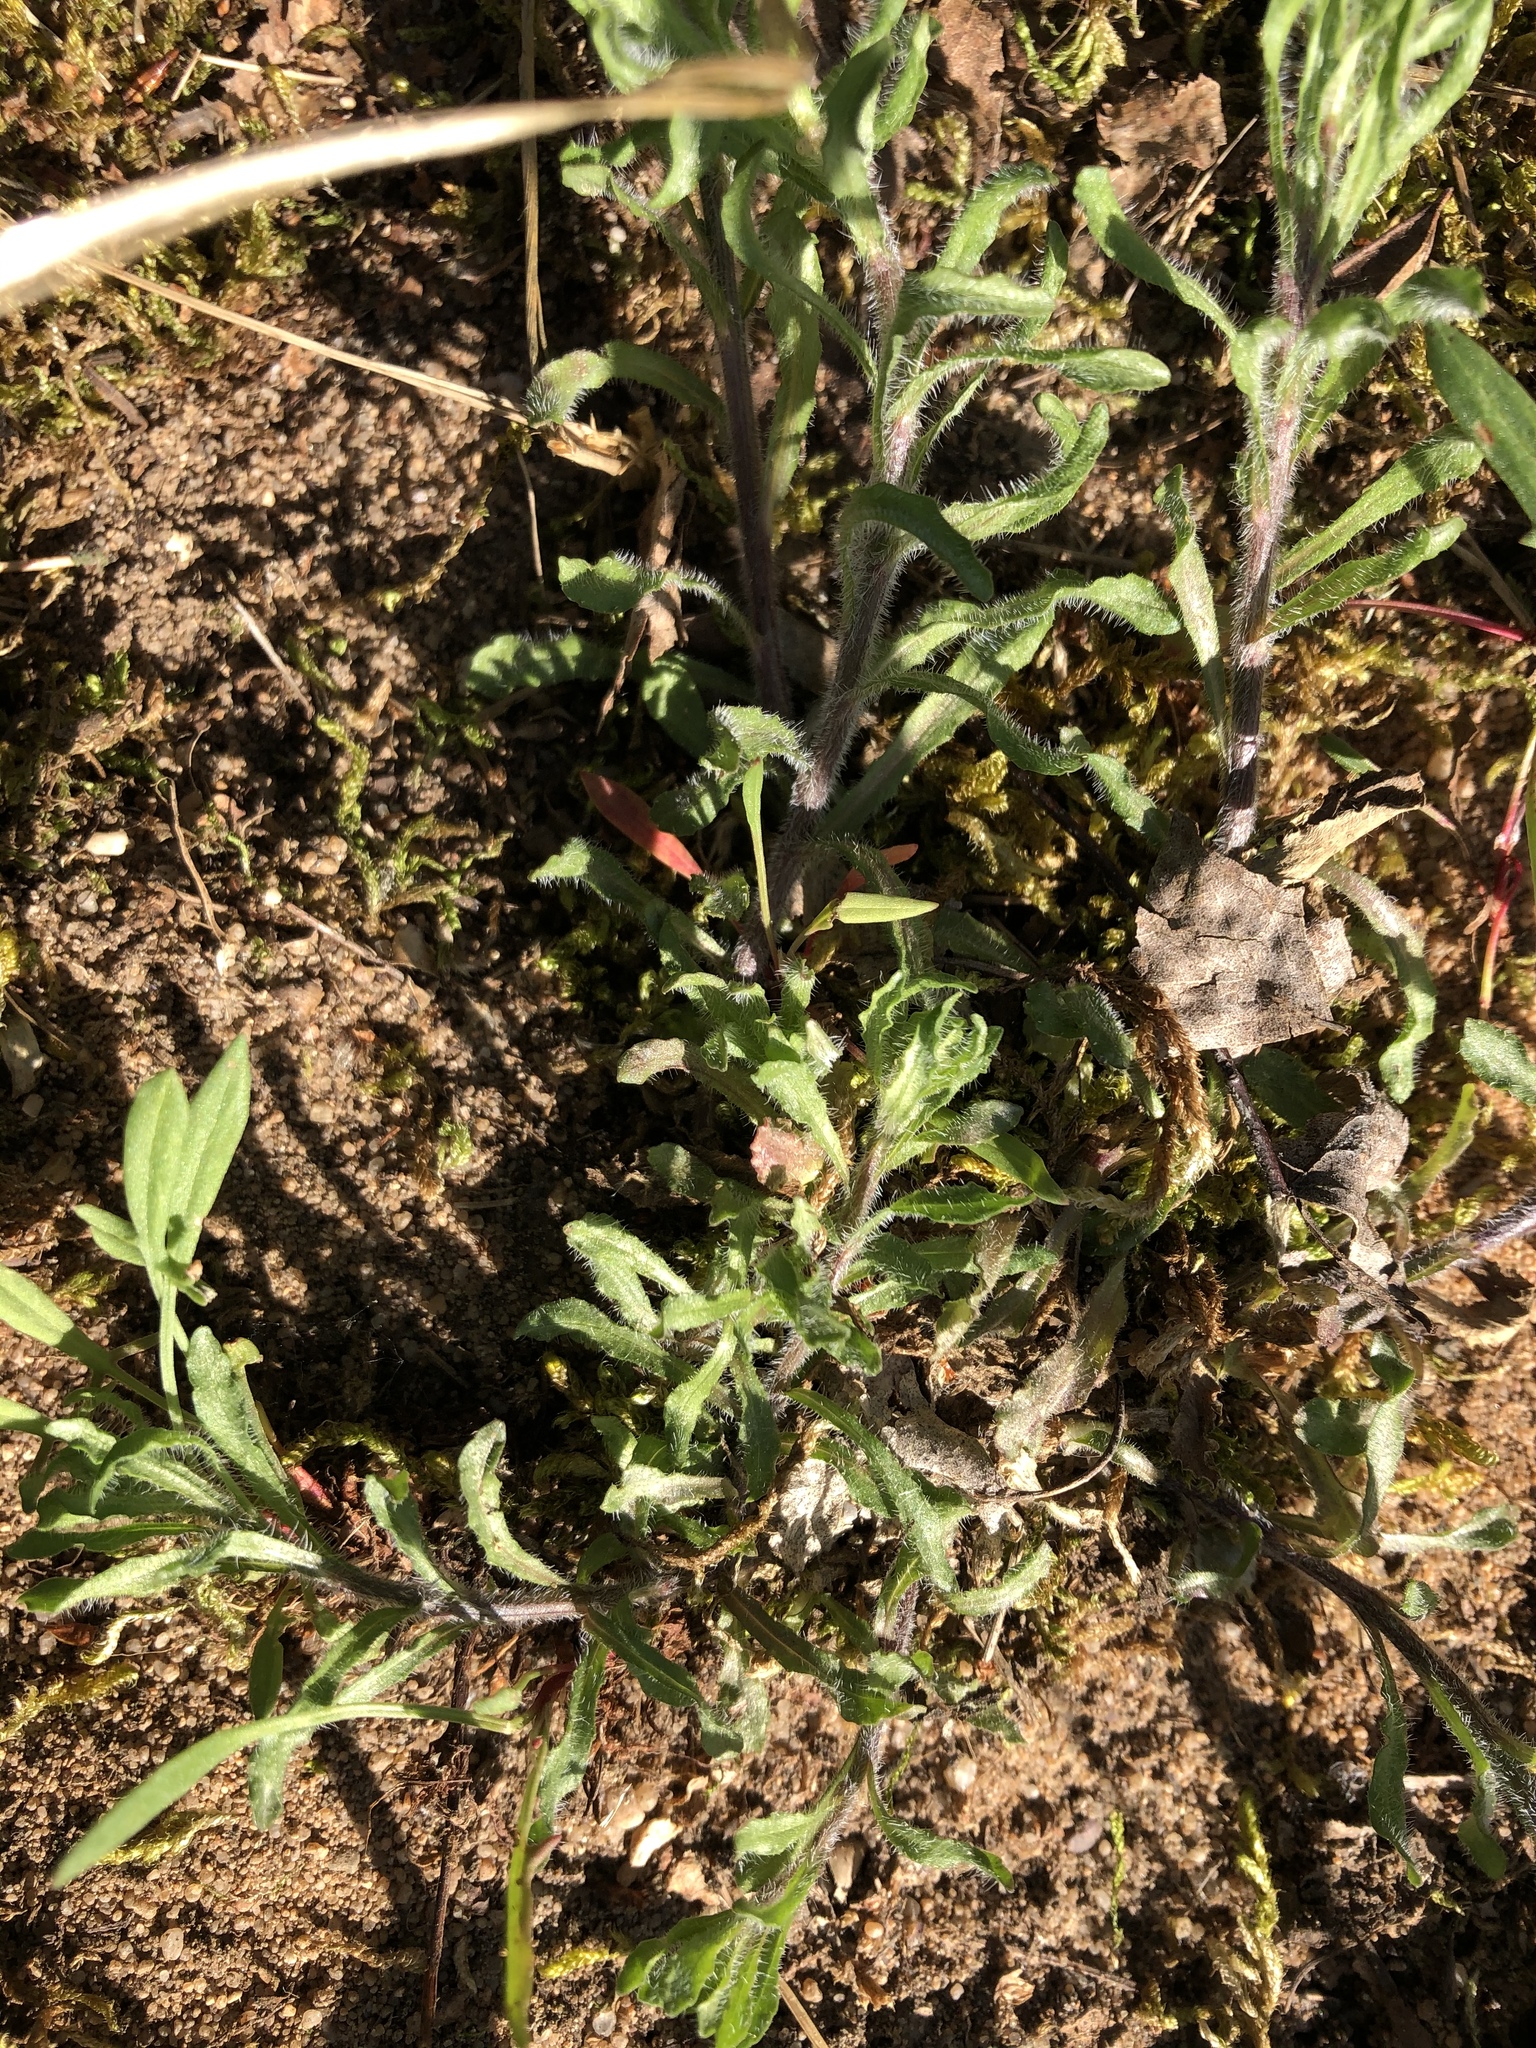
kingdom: Plantae
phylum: Tracheophyta
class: Magnoliopsida
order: Asterales
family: Campanulaceae
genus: Jasione
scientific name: Jasione montana
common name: Sheep's-bit
